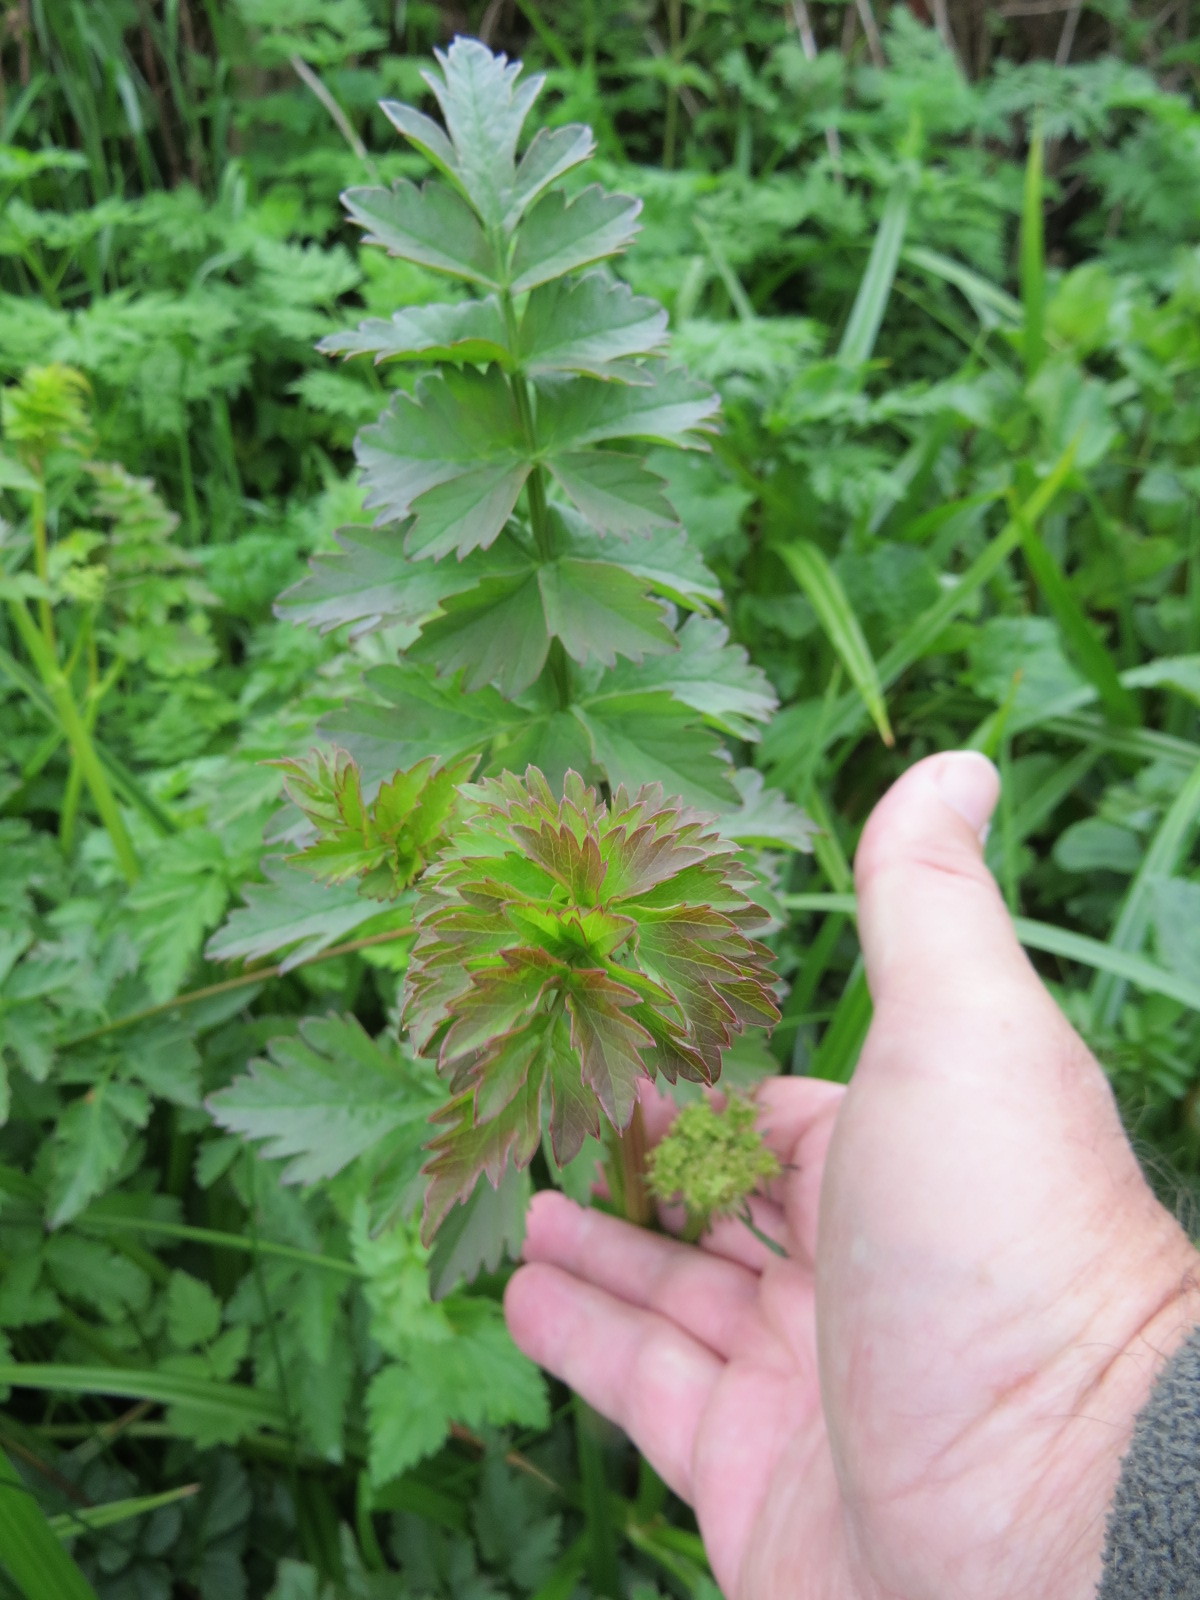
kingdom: Plantae
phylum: Tracheophyta
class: Magnoliopsida
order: Apiales
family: Apiaceae
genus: Oenanthe
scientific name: Oenanthe sarmentosa
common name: American water-parsley
